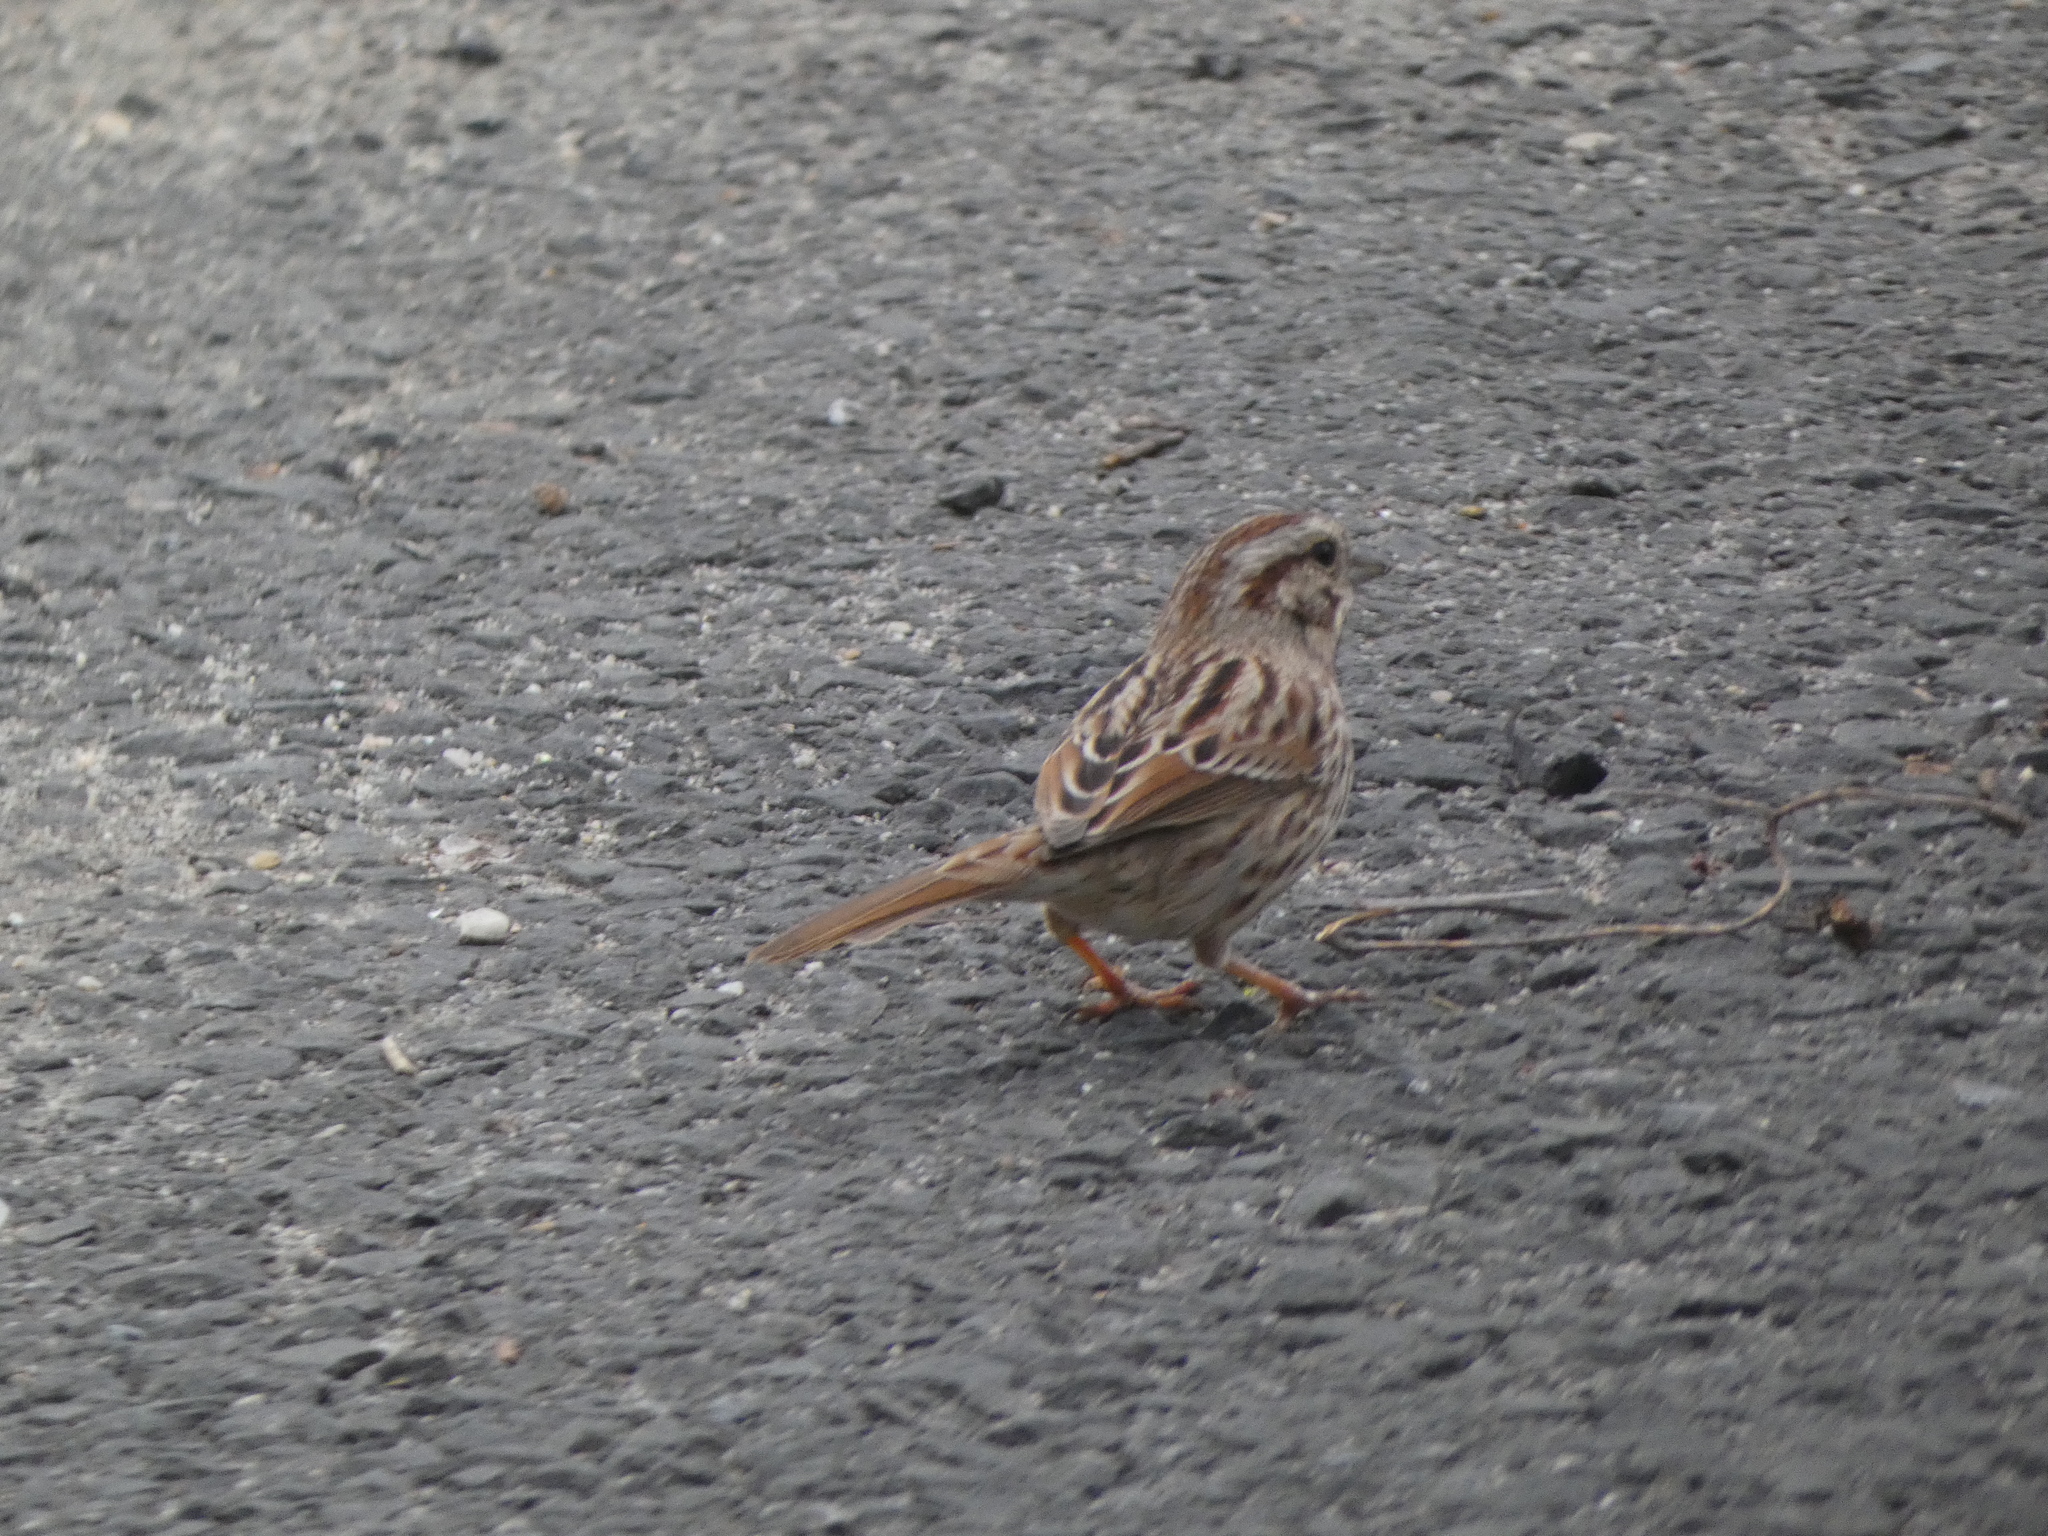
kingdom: Animalia
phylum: Chordata
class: Aves
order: Passeriformes
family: Passerellidae
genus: Melospiza
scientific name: Melospiza melodia
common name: Song sparrow
